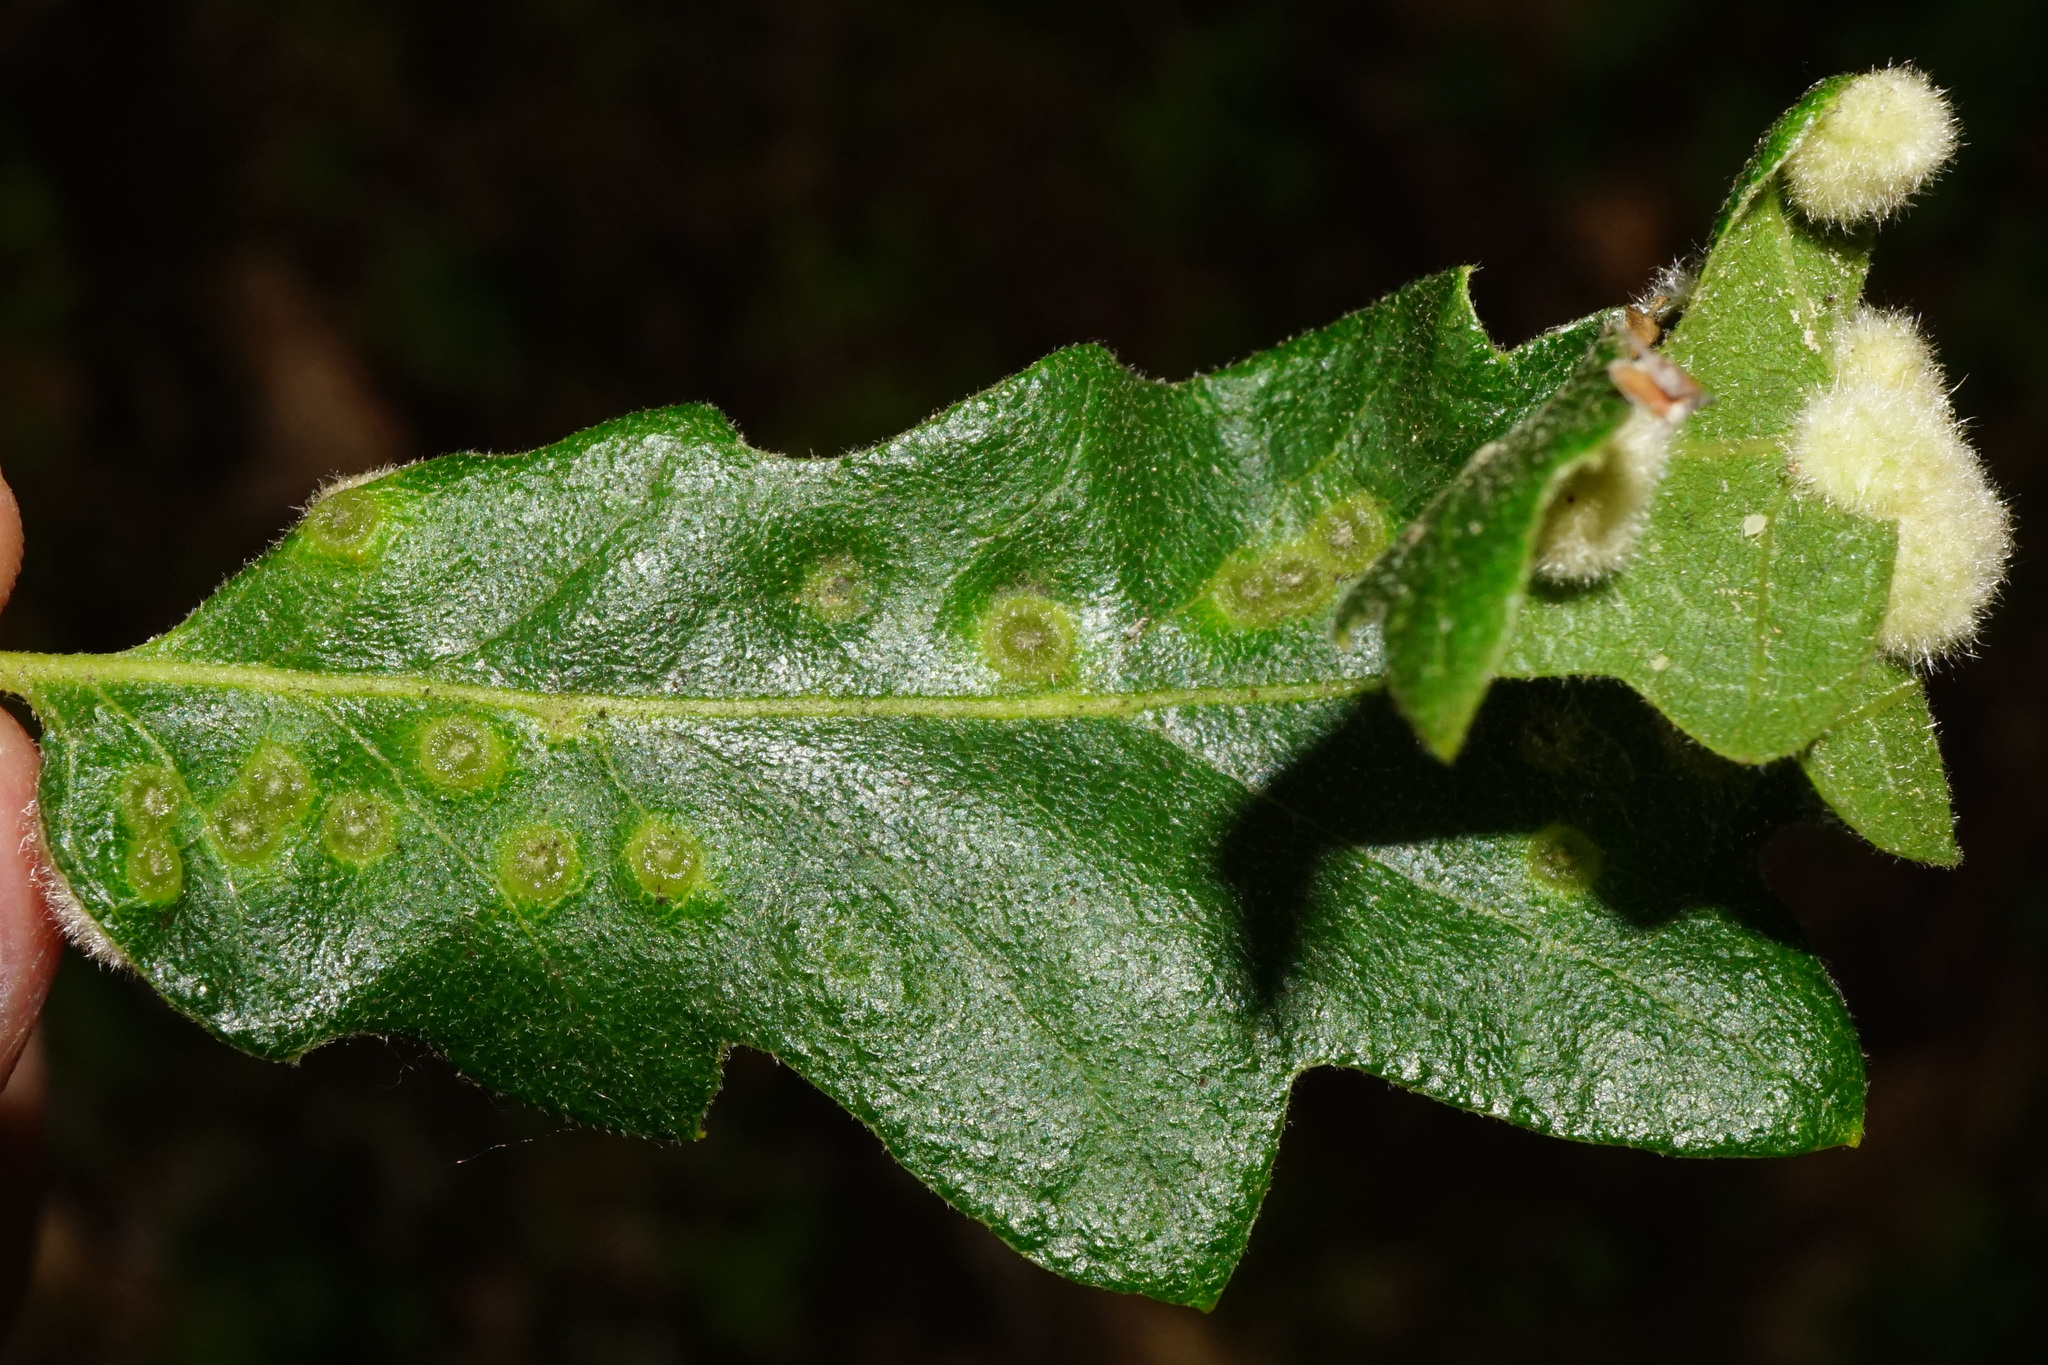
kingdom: Animalia
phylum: Arthropoda
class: Insecta
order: Diptera
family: Cecidomyiidae
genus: Dryomyia
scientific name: Dryomyia circinans
